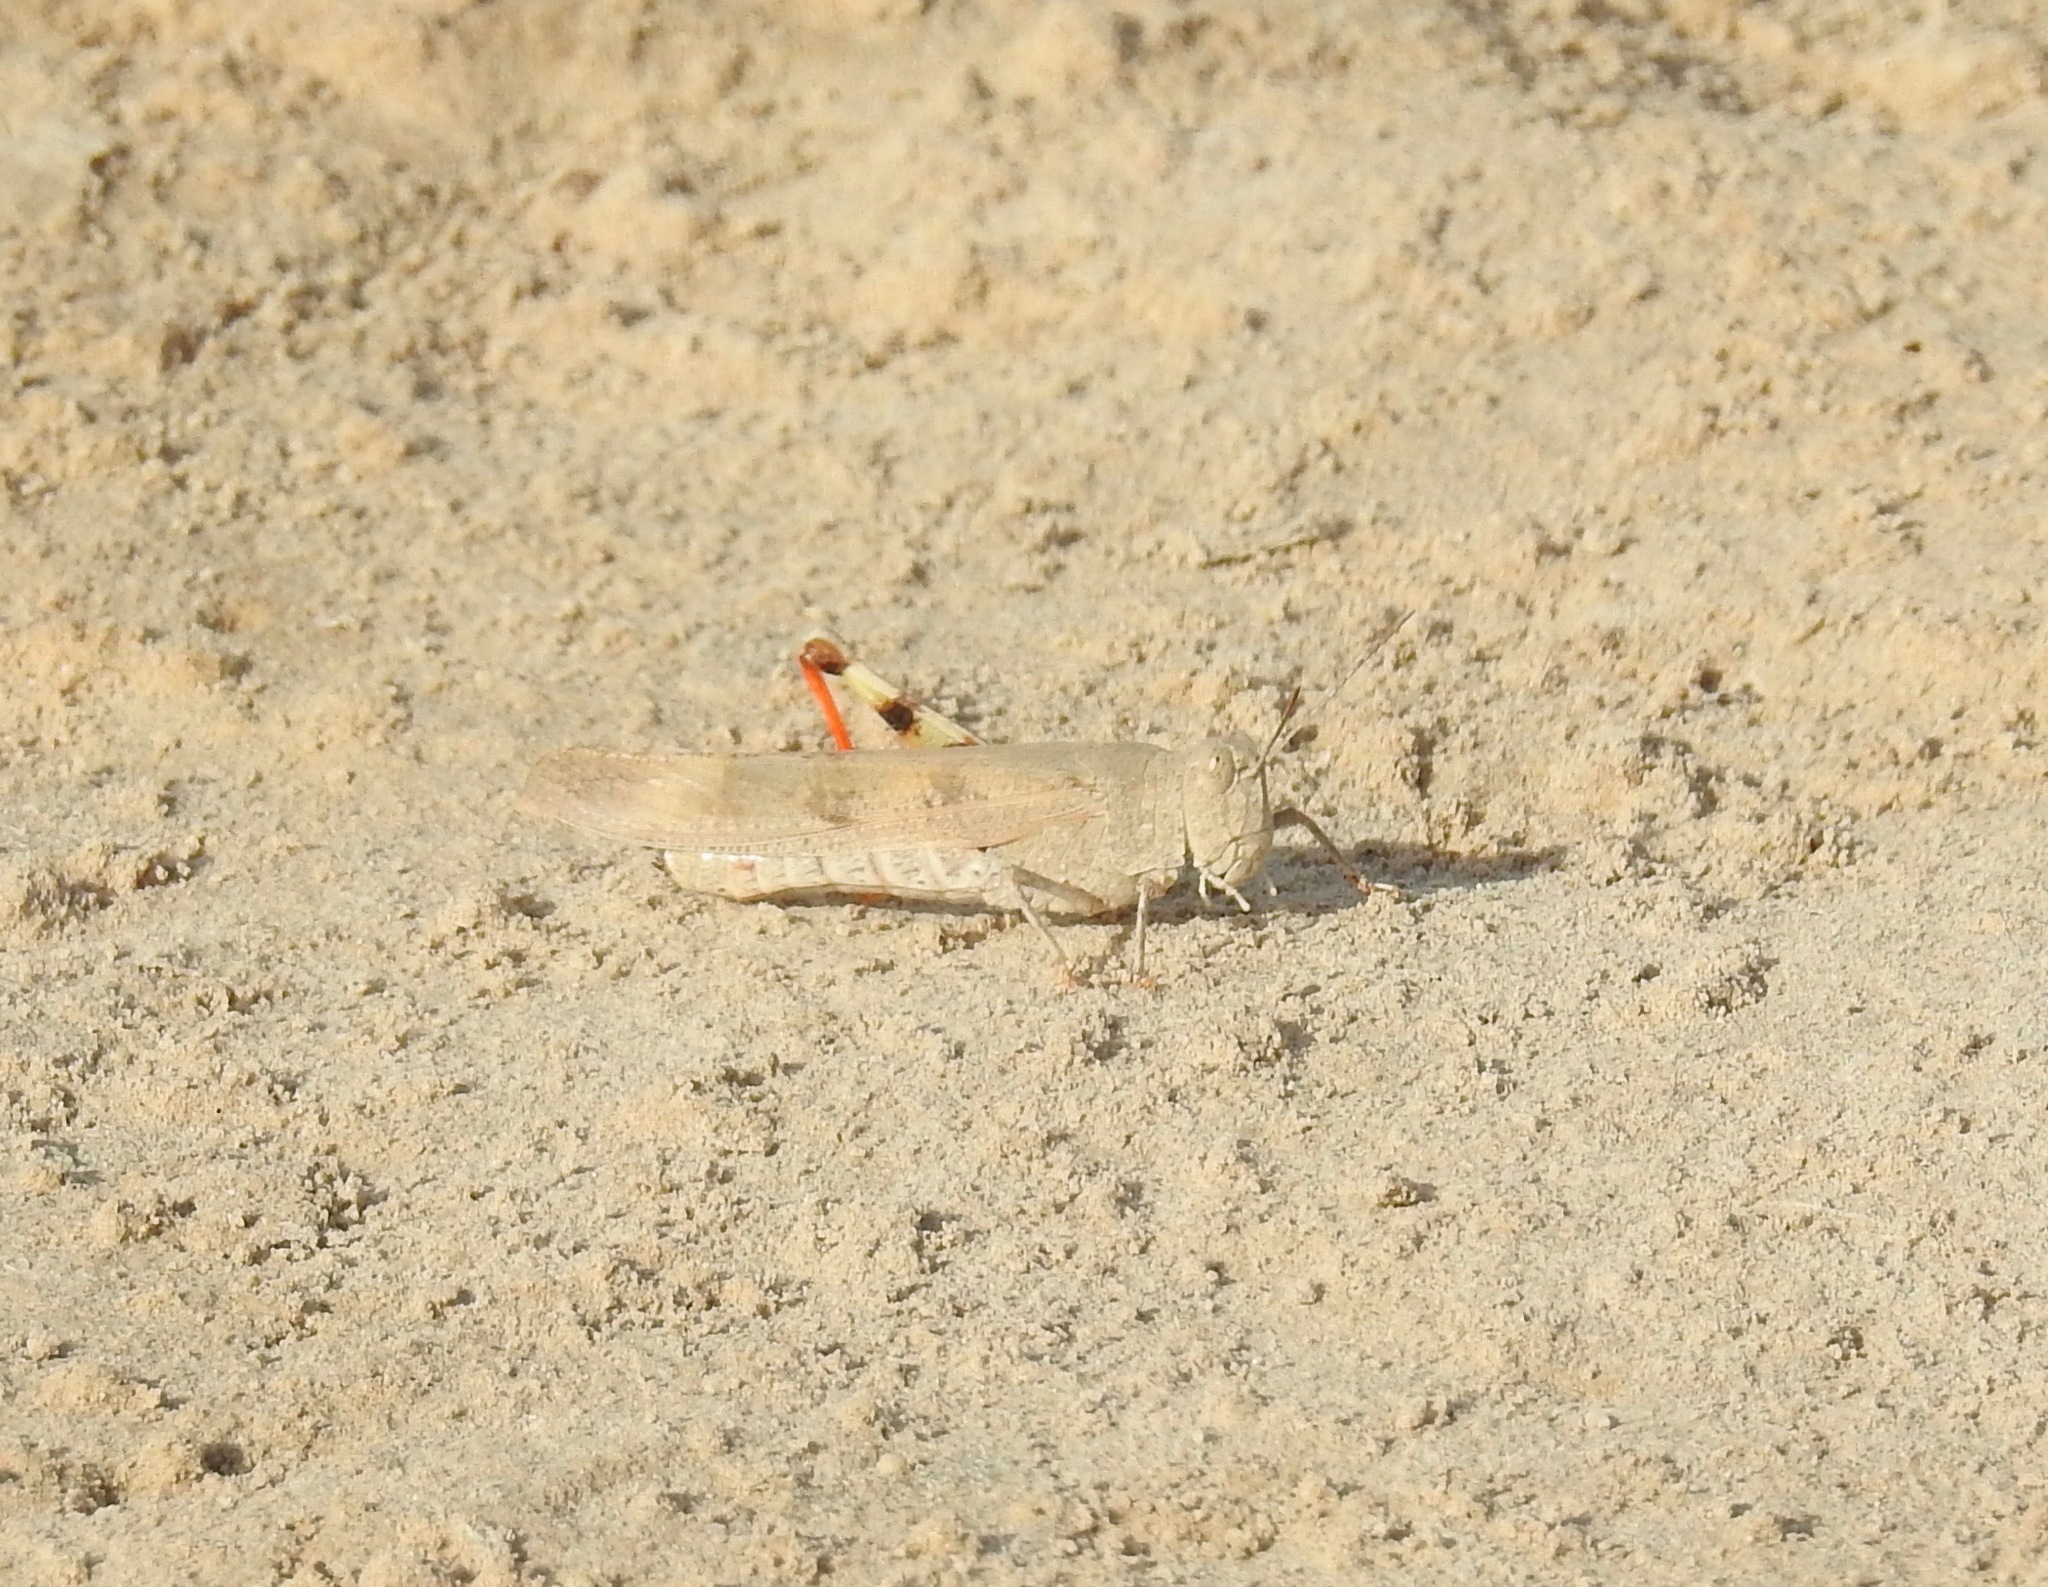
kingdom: Animalia
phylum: Arthropoda
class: Insecta
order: Orthoptera
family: Acrididae
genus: Trimerotropis
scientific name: Trimerotropis maritima
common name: Seaside locust
